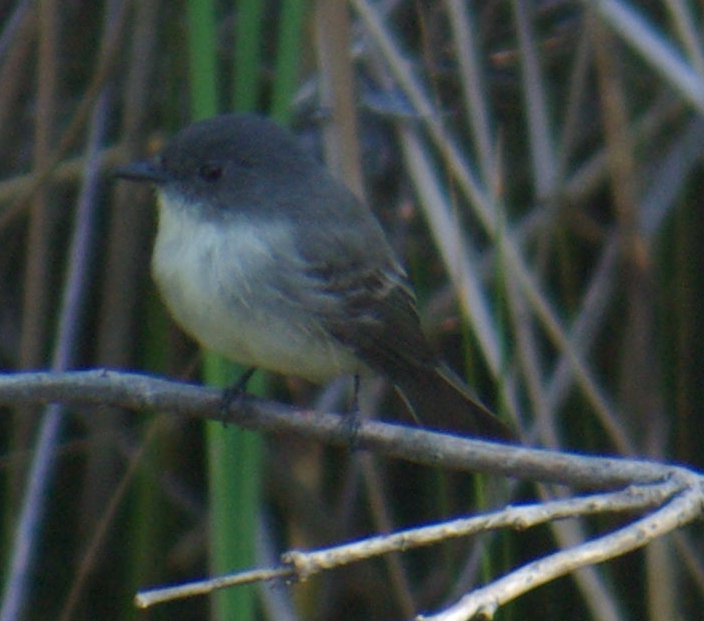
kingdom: Animalia
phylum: Chordata
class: Aves
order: Passeriformes
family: Tyrannidae
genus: Sayornis
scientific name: Sayornis phoebe
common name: Eastern phoebe
